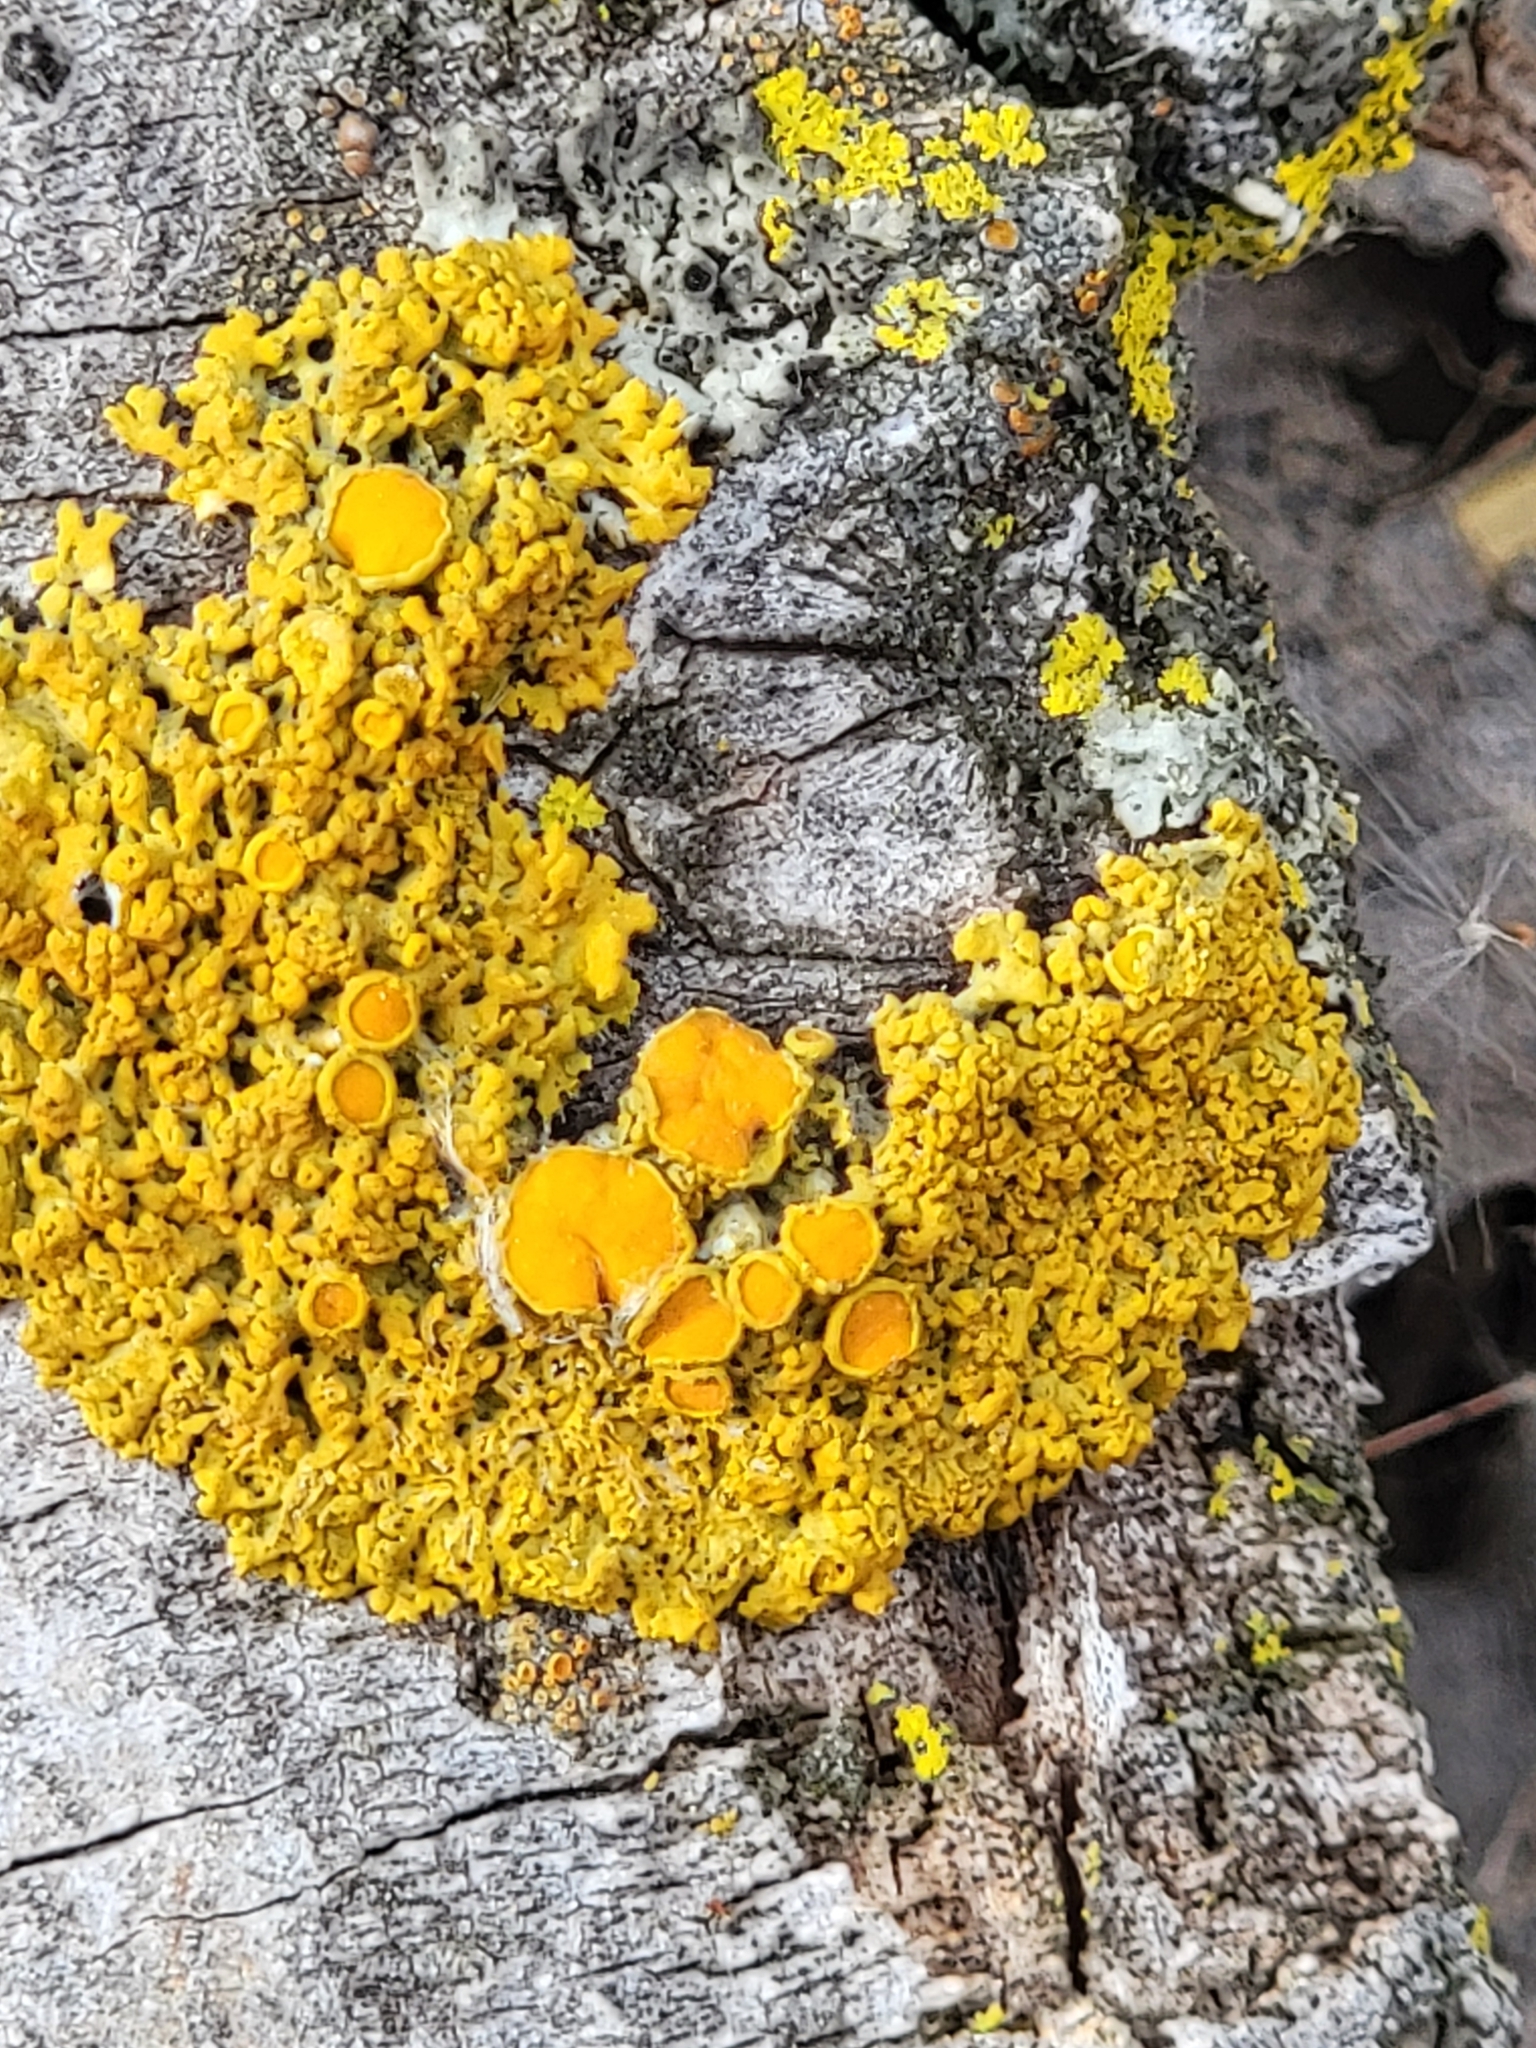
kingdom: Fungi
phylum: Ascomycota
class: Lecanoromycetes
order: Teloschistales
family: Teloschistaceae
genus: Gallowayella
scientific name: Gallowayella hasseana
